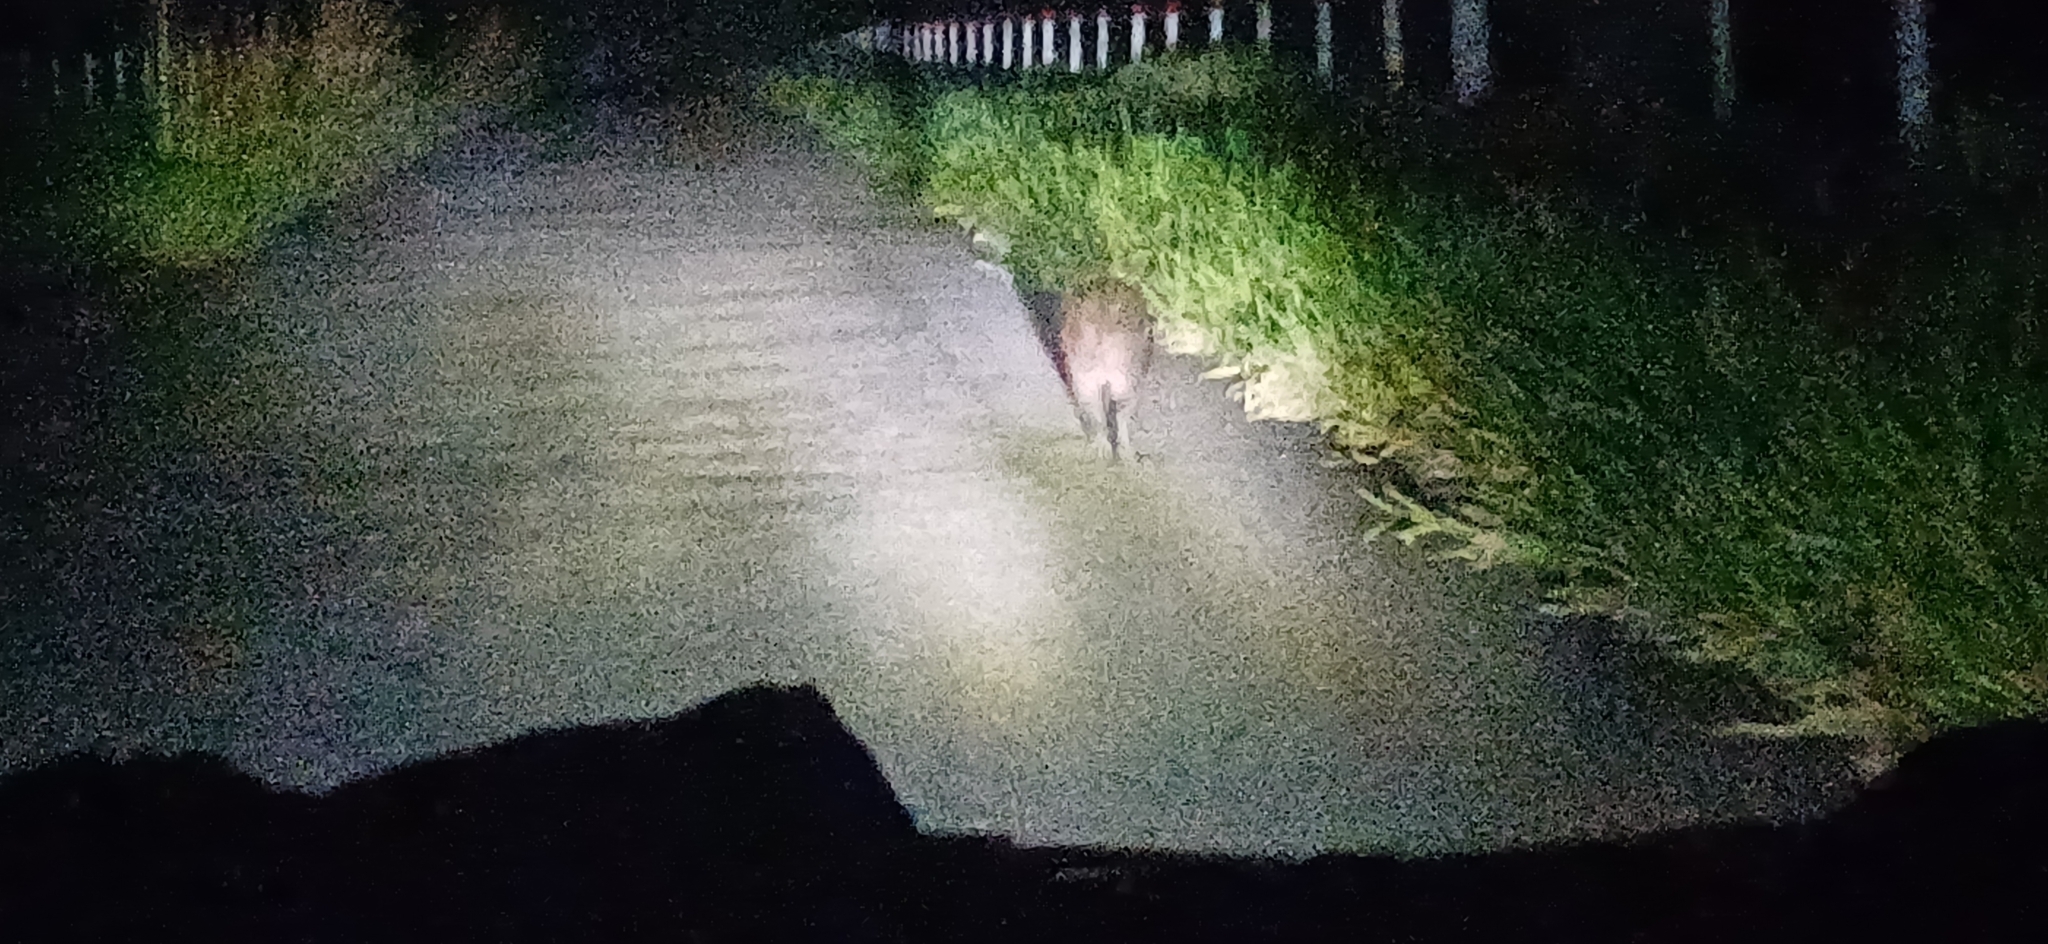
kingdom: Animalia
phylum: Chordata
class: Mammalia
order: Rodentia
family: Caviidae
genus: Hydrochoerus
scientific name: Hydrochoerus hydrochaeris
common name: Capybara
